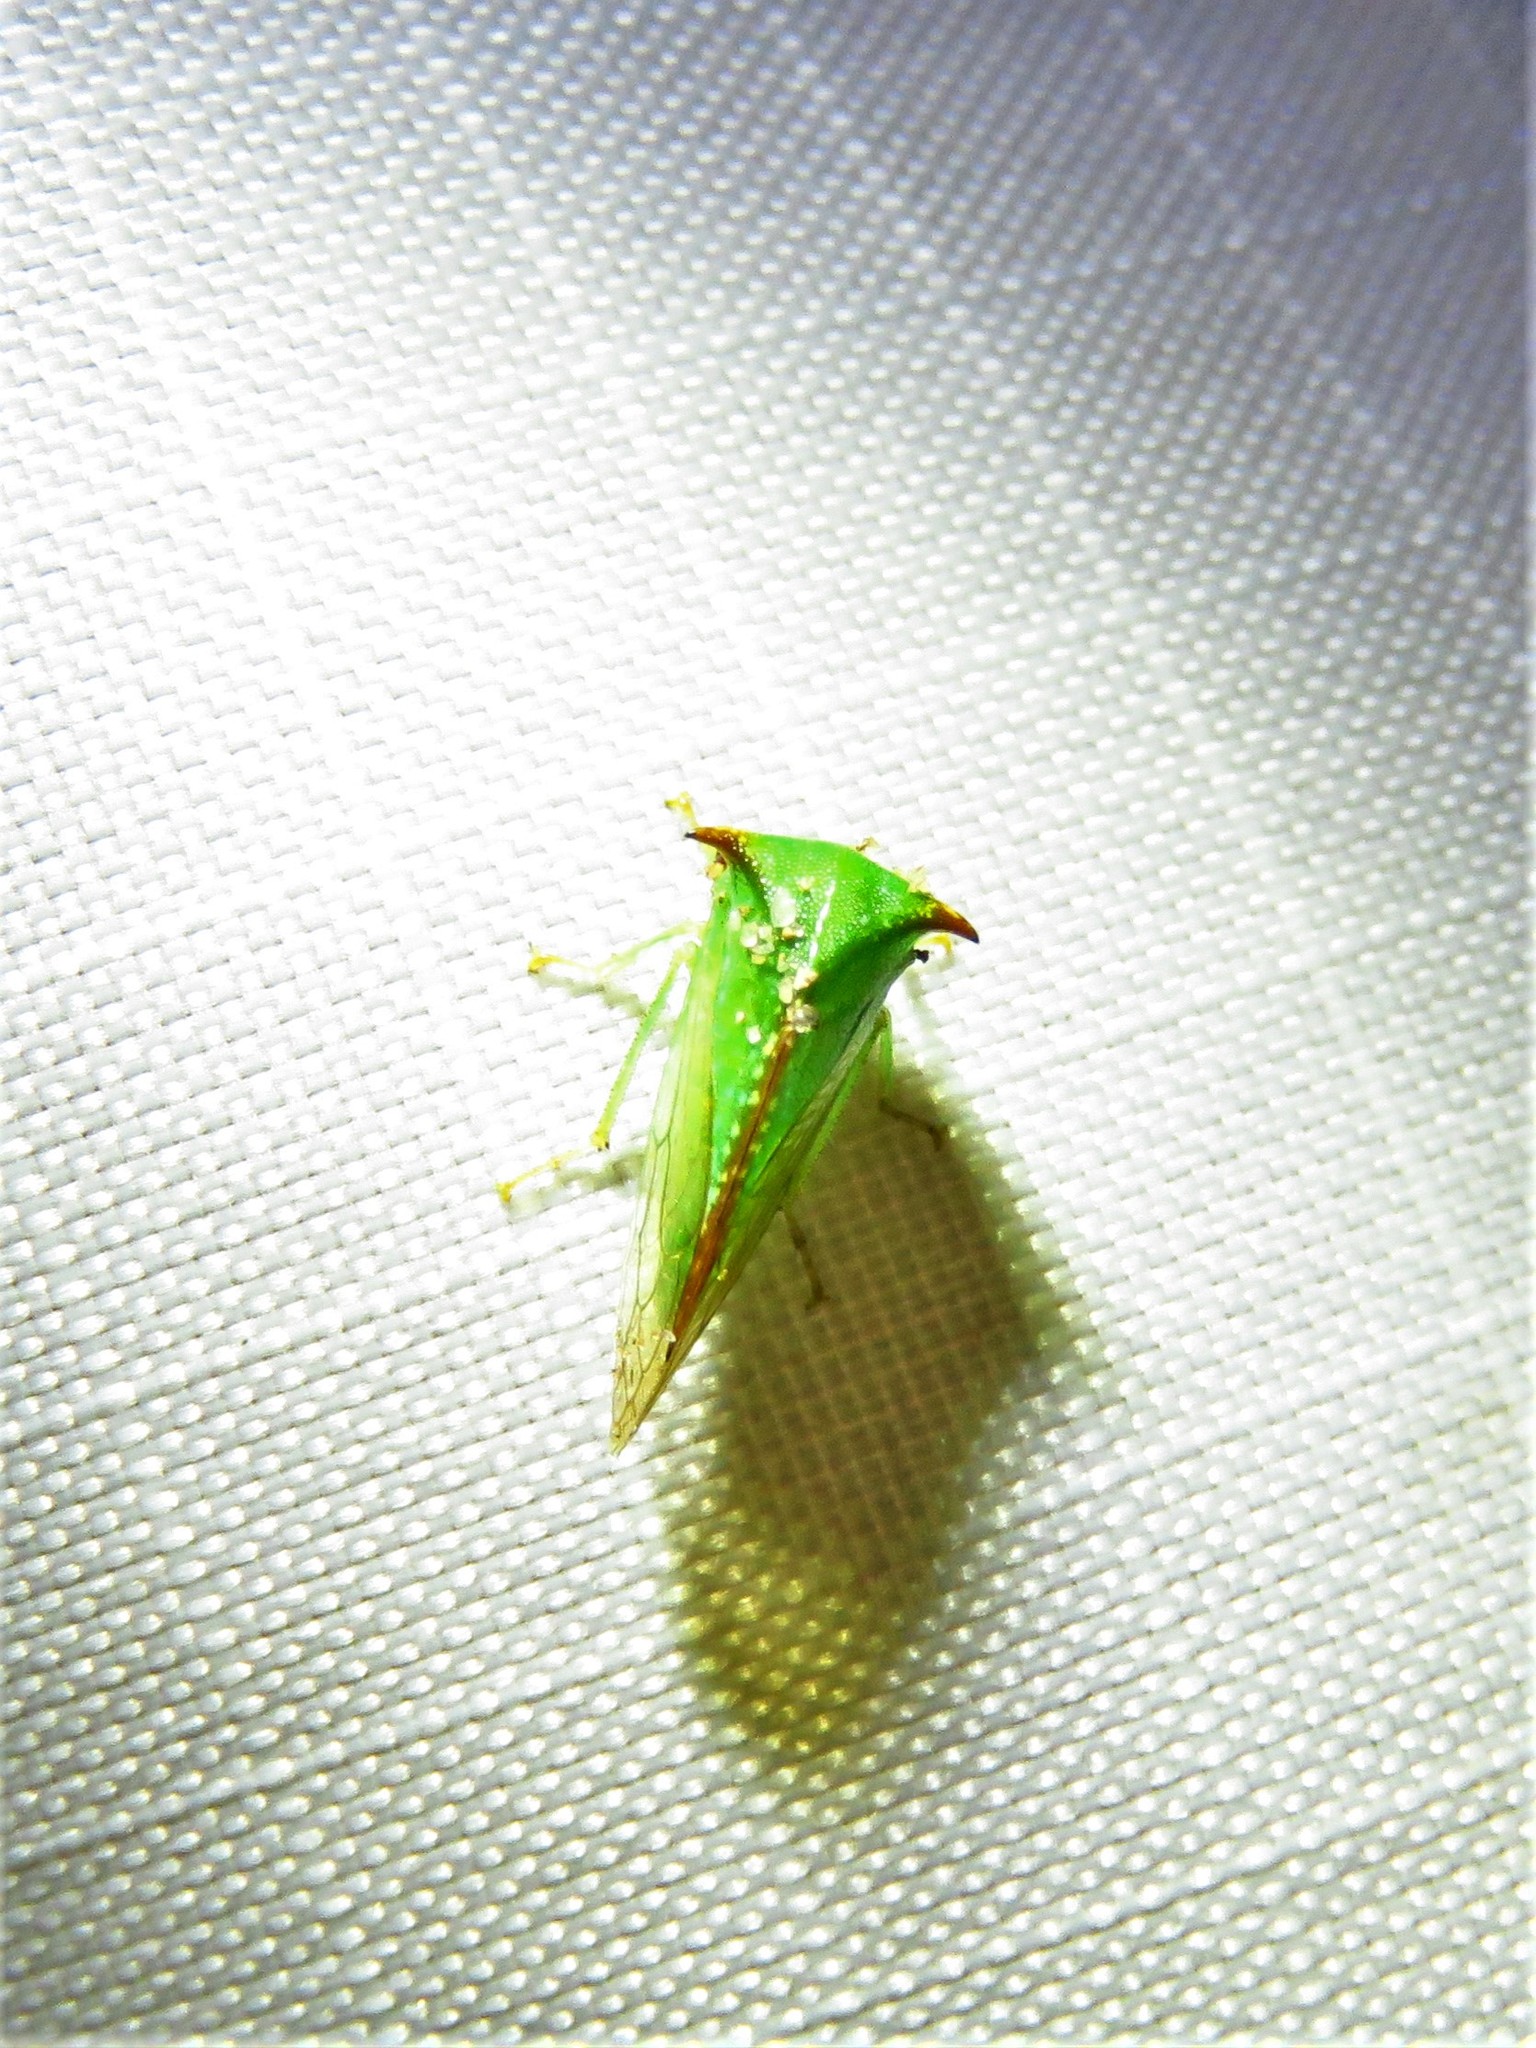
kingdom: Animalia
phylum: Arthropoda
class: Insecta
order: Hemiptera
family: Membracidae
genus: Stictocephala
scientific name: Stictocephala militaris
